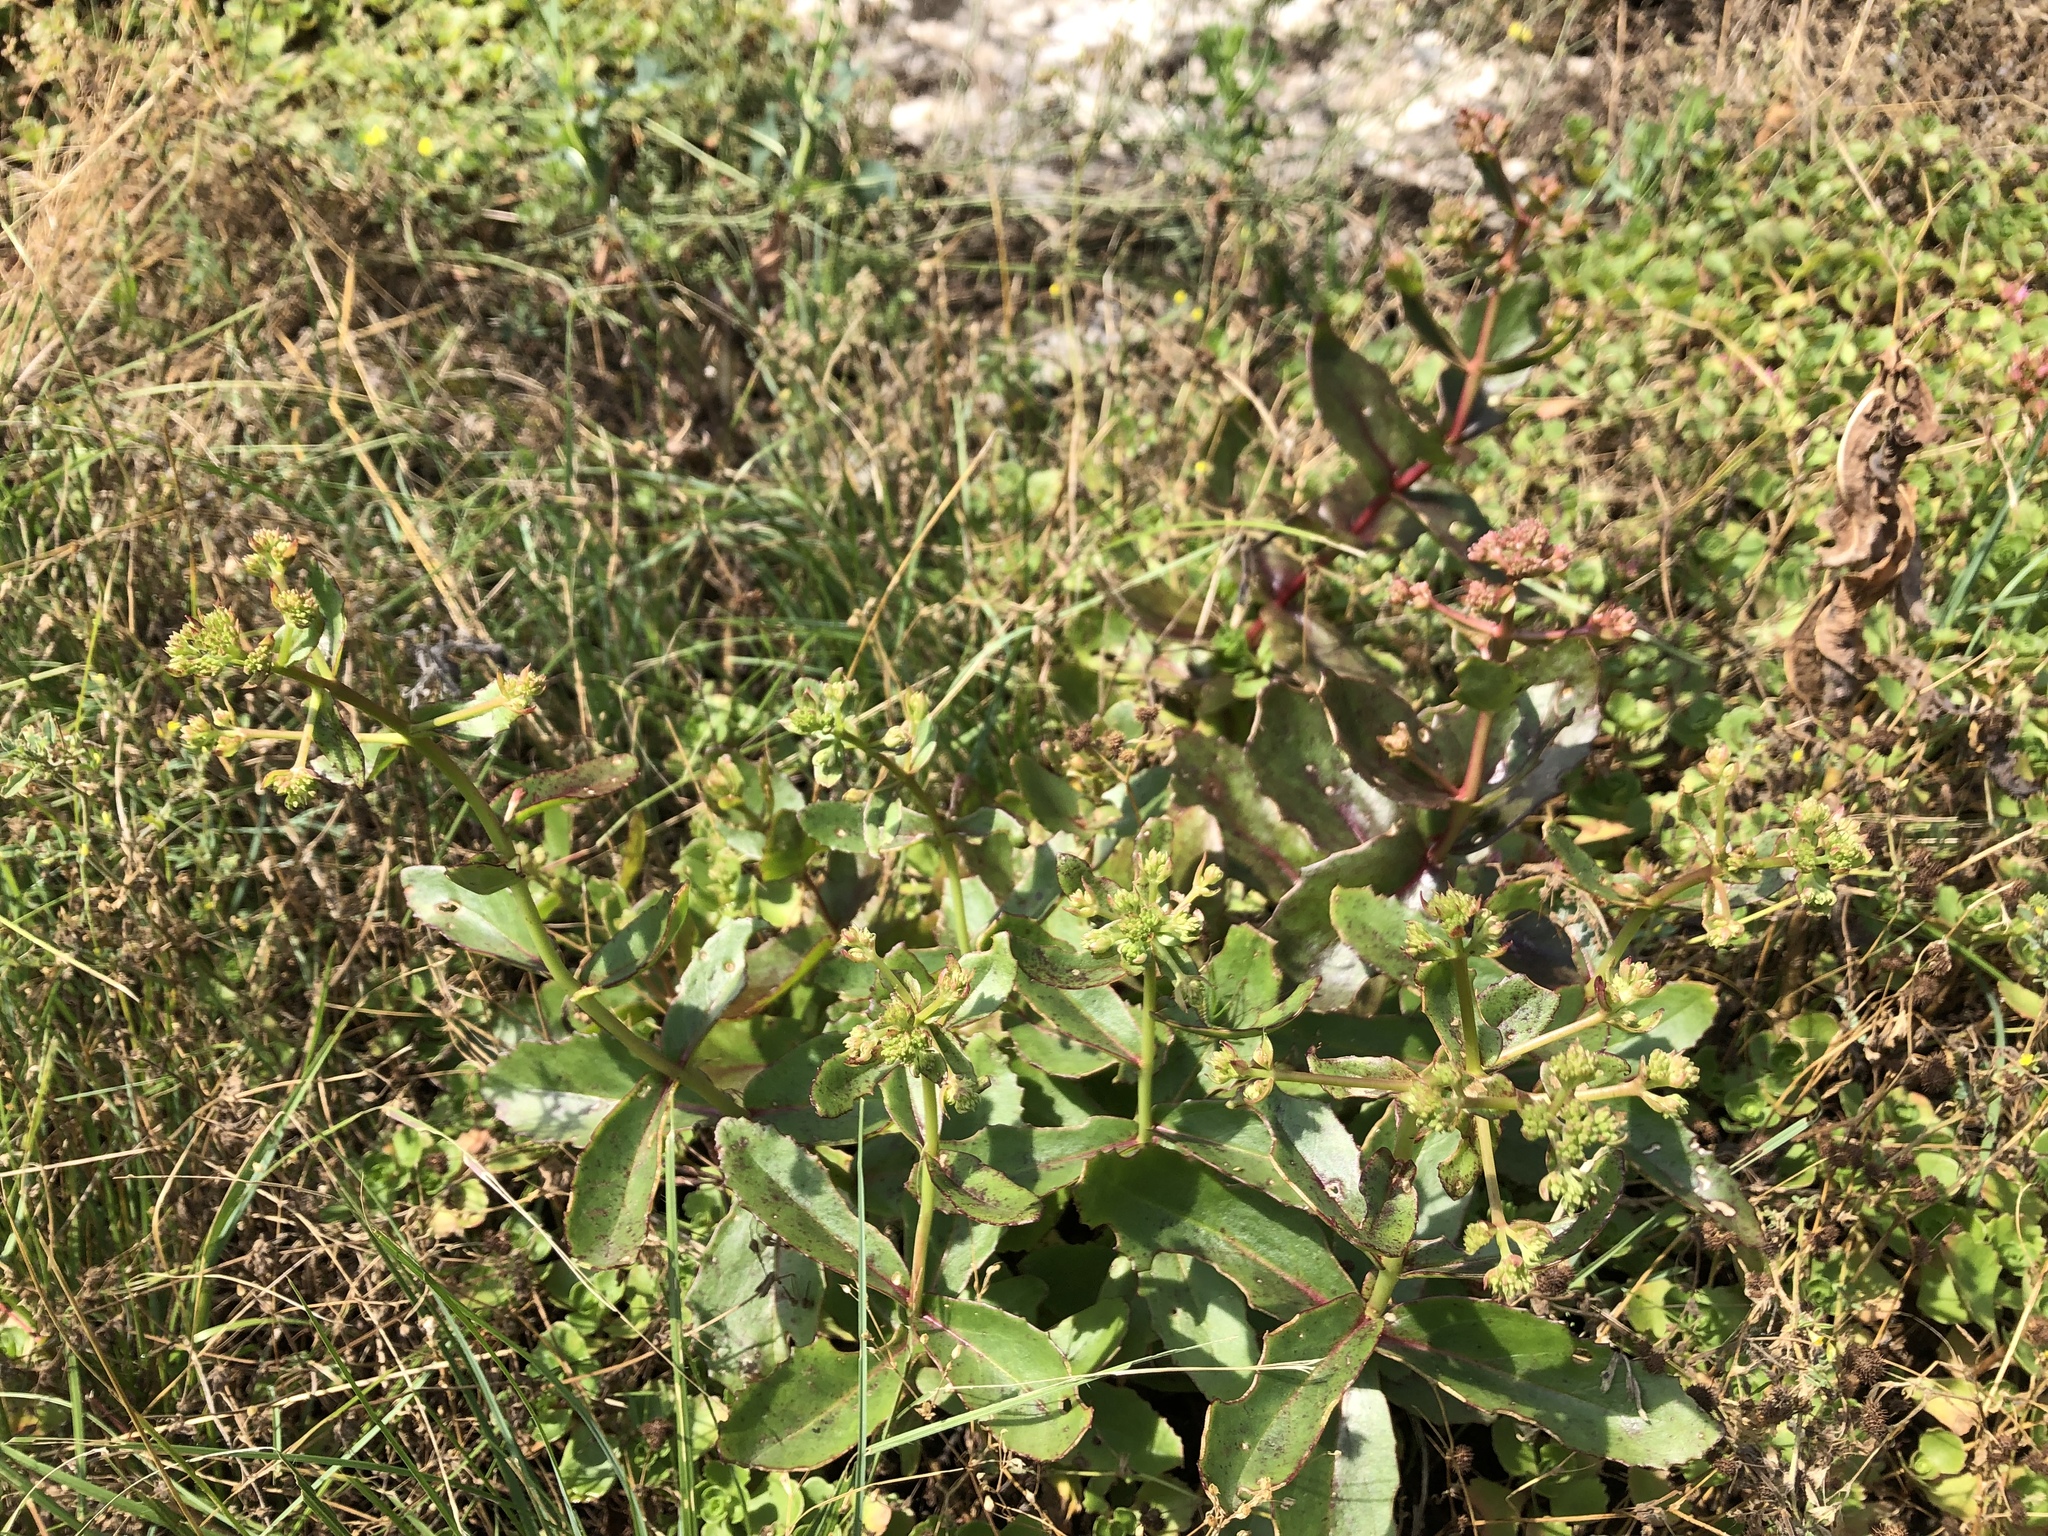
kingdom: Plantae
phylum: Tracheophyta
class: Magnoliopsida
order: Saxifragales
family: Crassulaceae
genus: Hylotelephium
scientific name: Hylotelephium maximum
